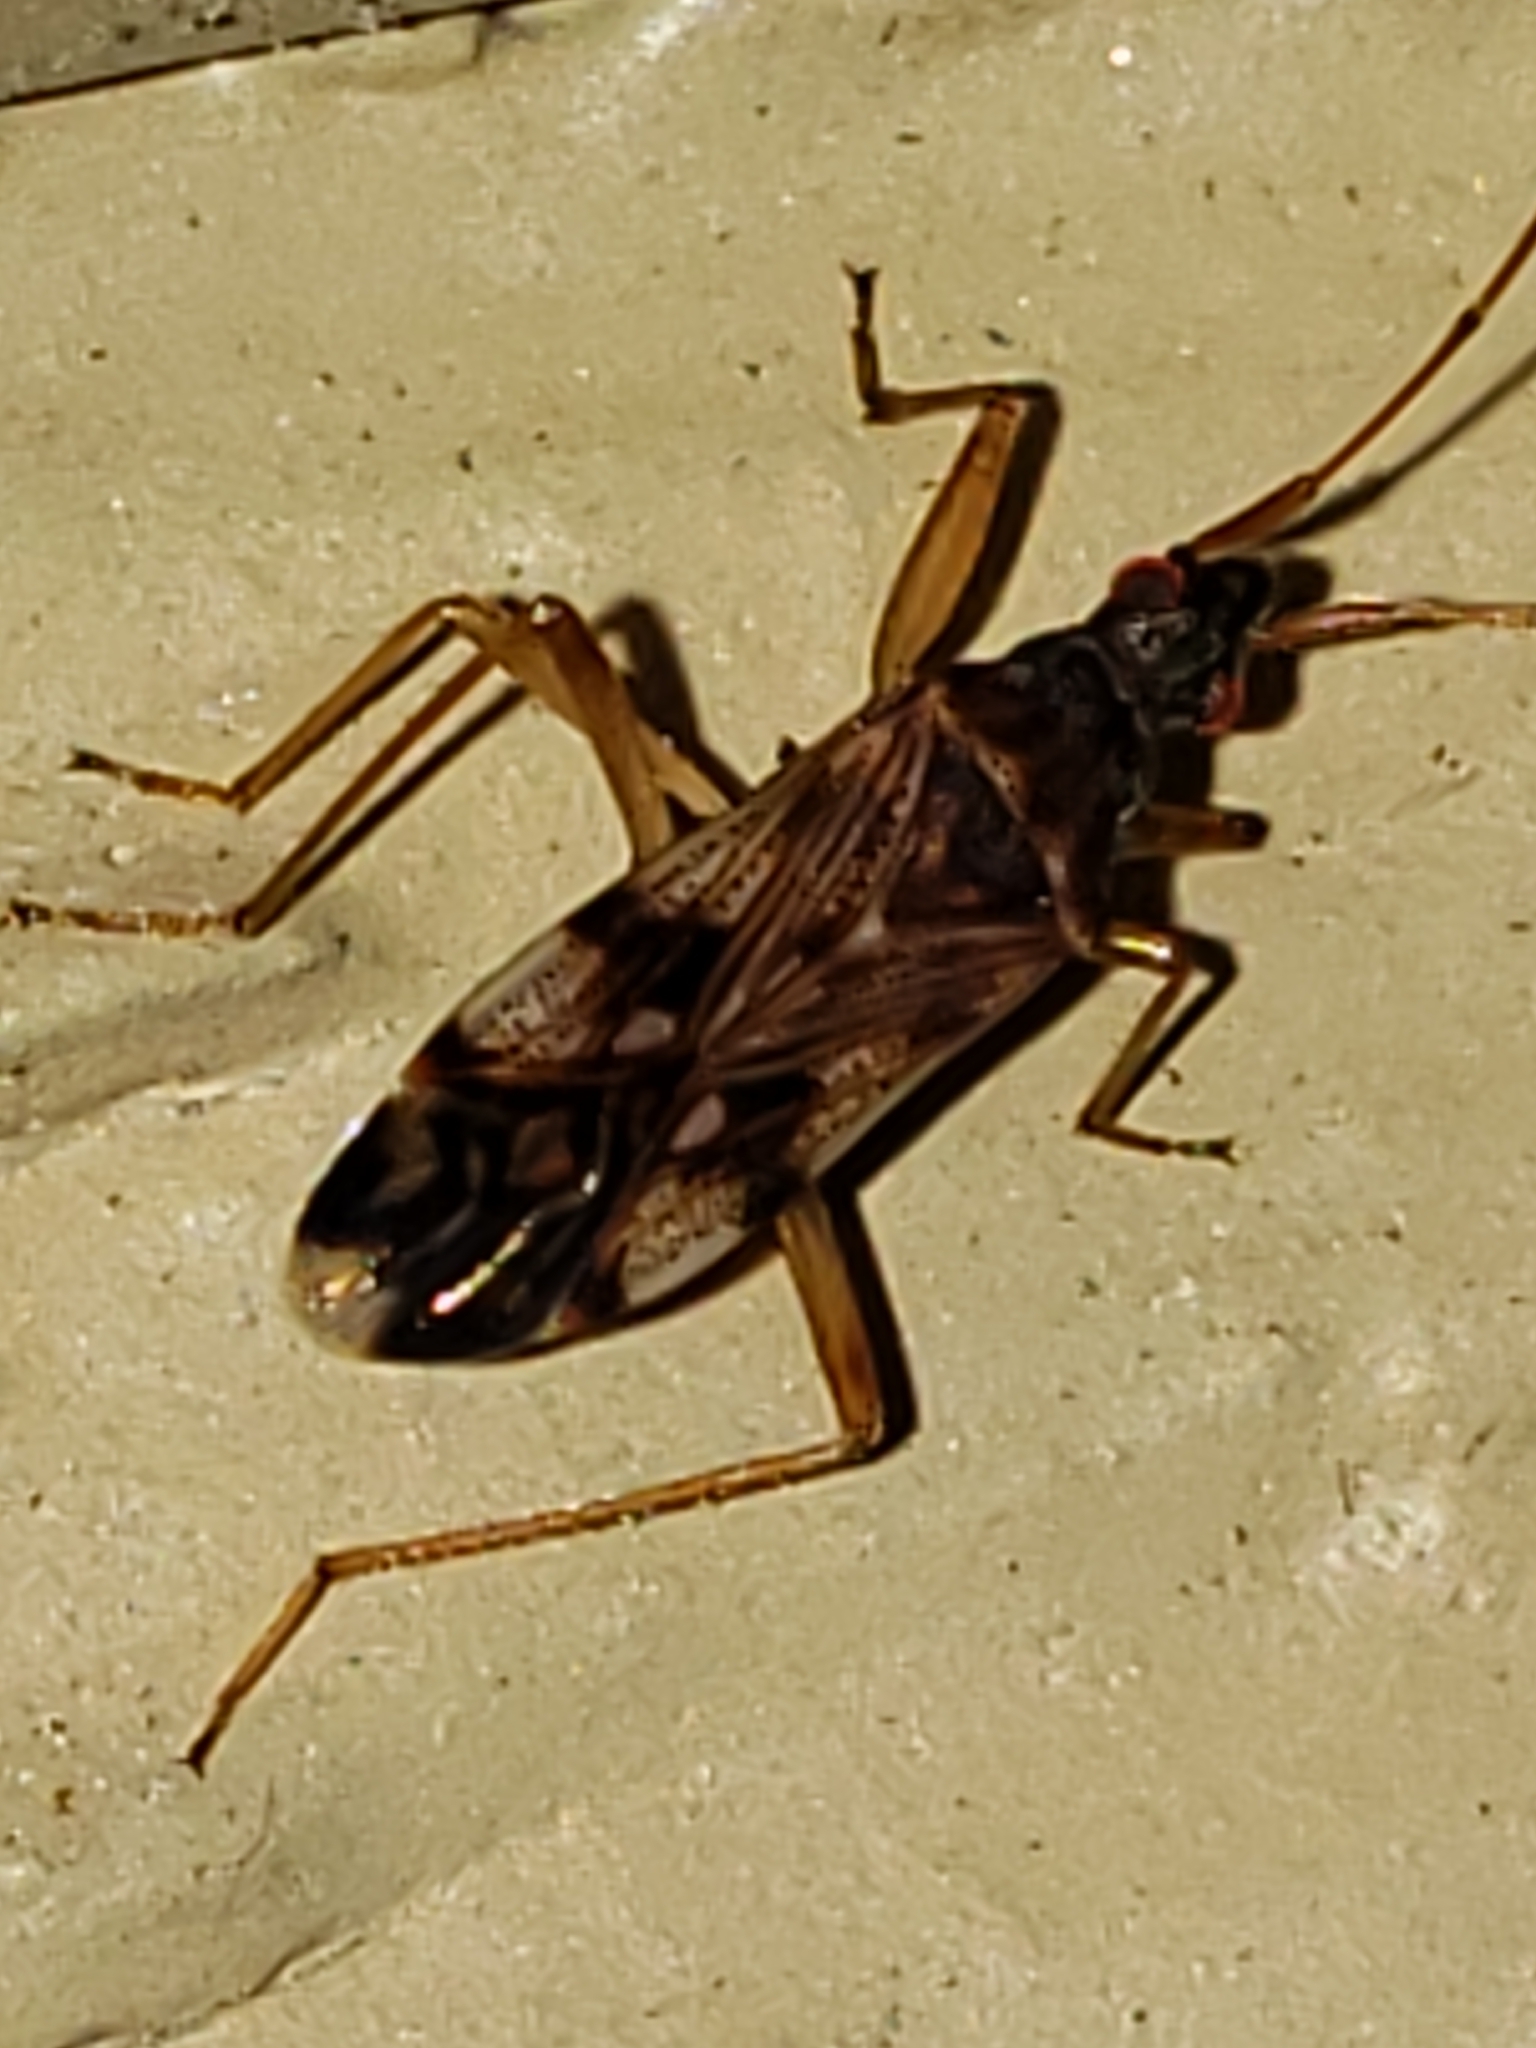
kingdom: Animalia
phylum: Arthropoda
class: Insecta
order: Hemiptera
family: Rhyparochromidae
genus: Ozophora
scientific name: Ozophora picturata
